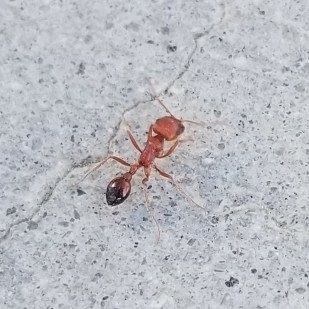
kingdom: Animalia
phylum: Arthropoda
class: Insecta
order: Hymenoptera
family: Formicidae
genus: Pogonomyrmex
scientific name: Pogonomyrmex californicus
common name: California harvester ant
